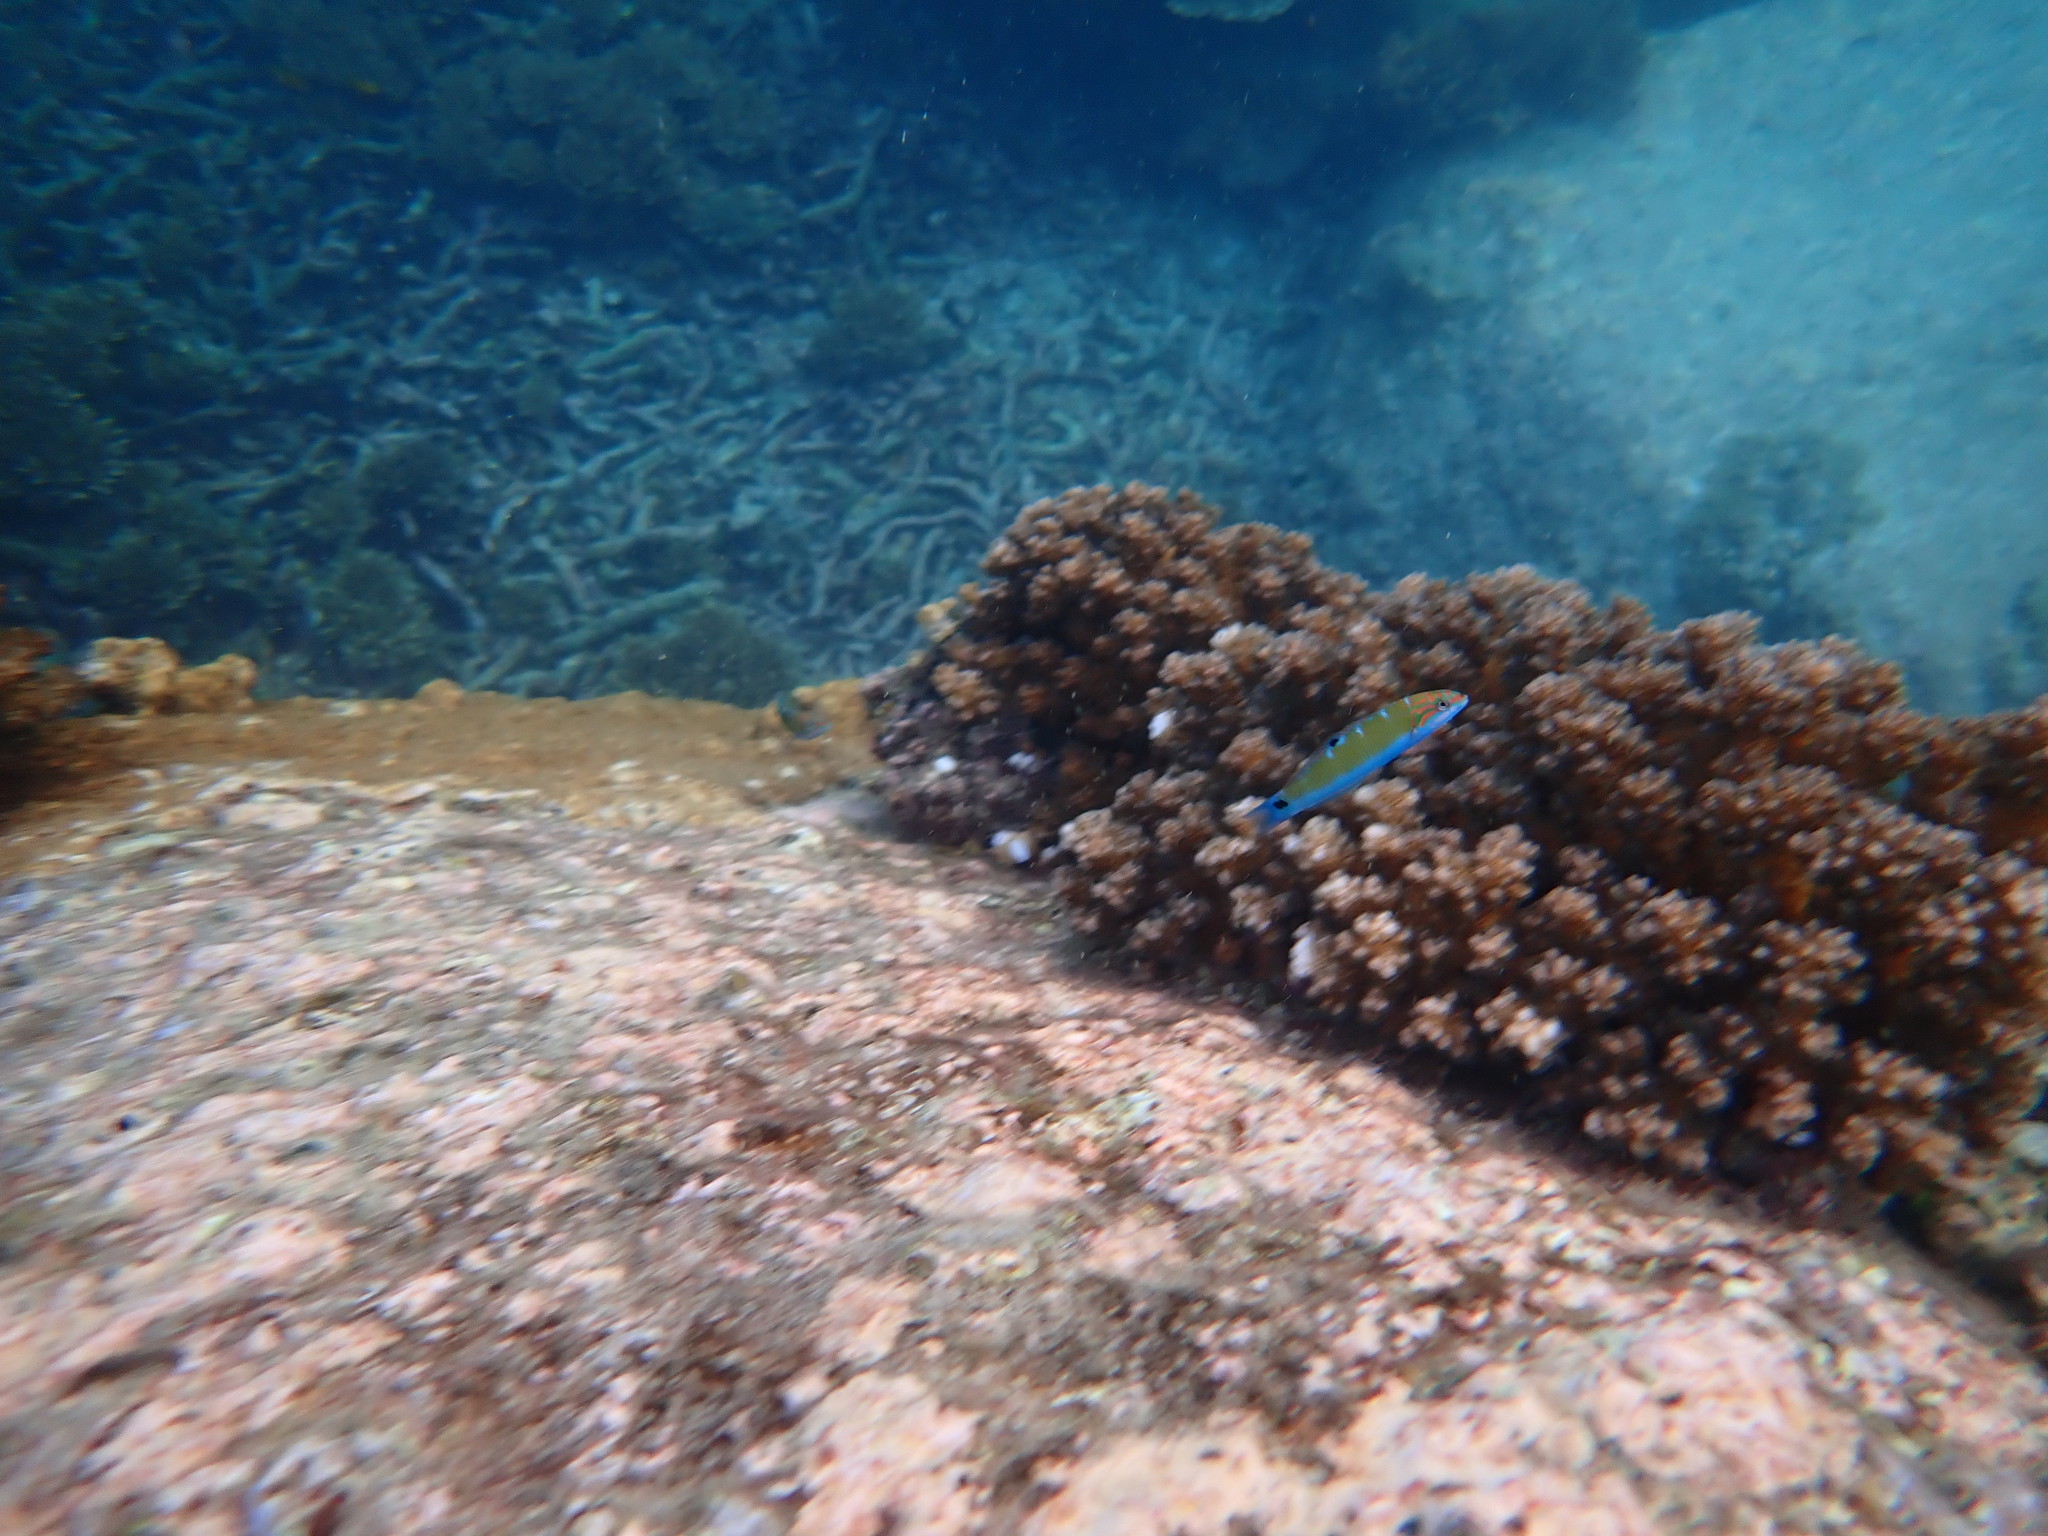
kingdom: Animalia
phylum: Chordata
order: Perciformes
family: Labridae
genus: Thalassoma
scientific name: Thalassoma lunare
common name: Blue wrasse
